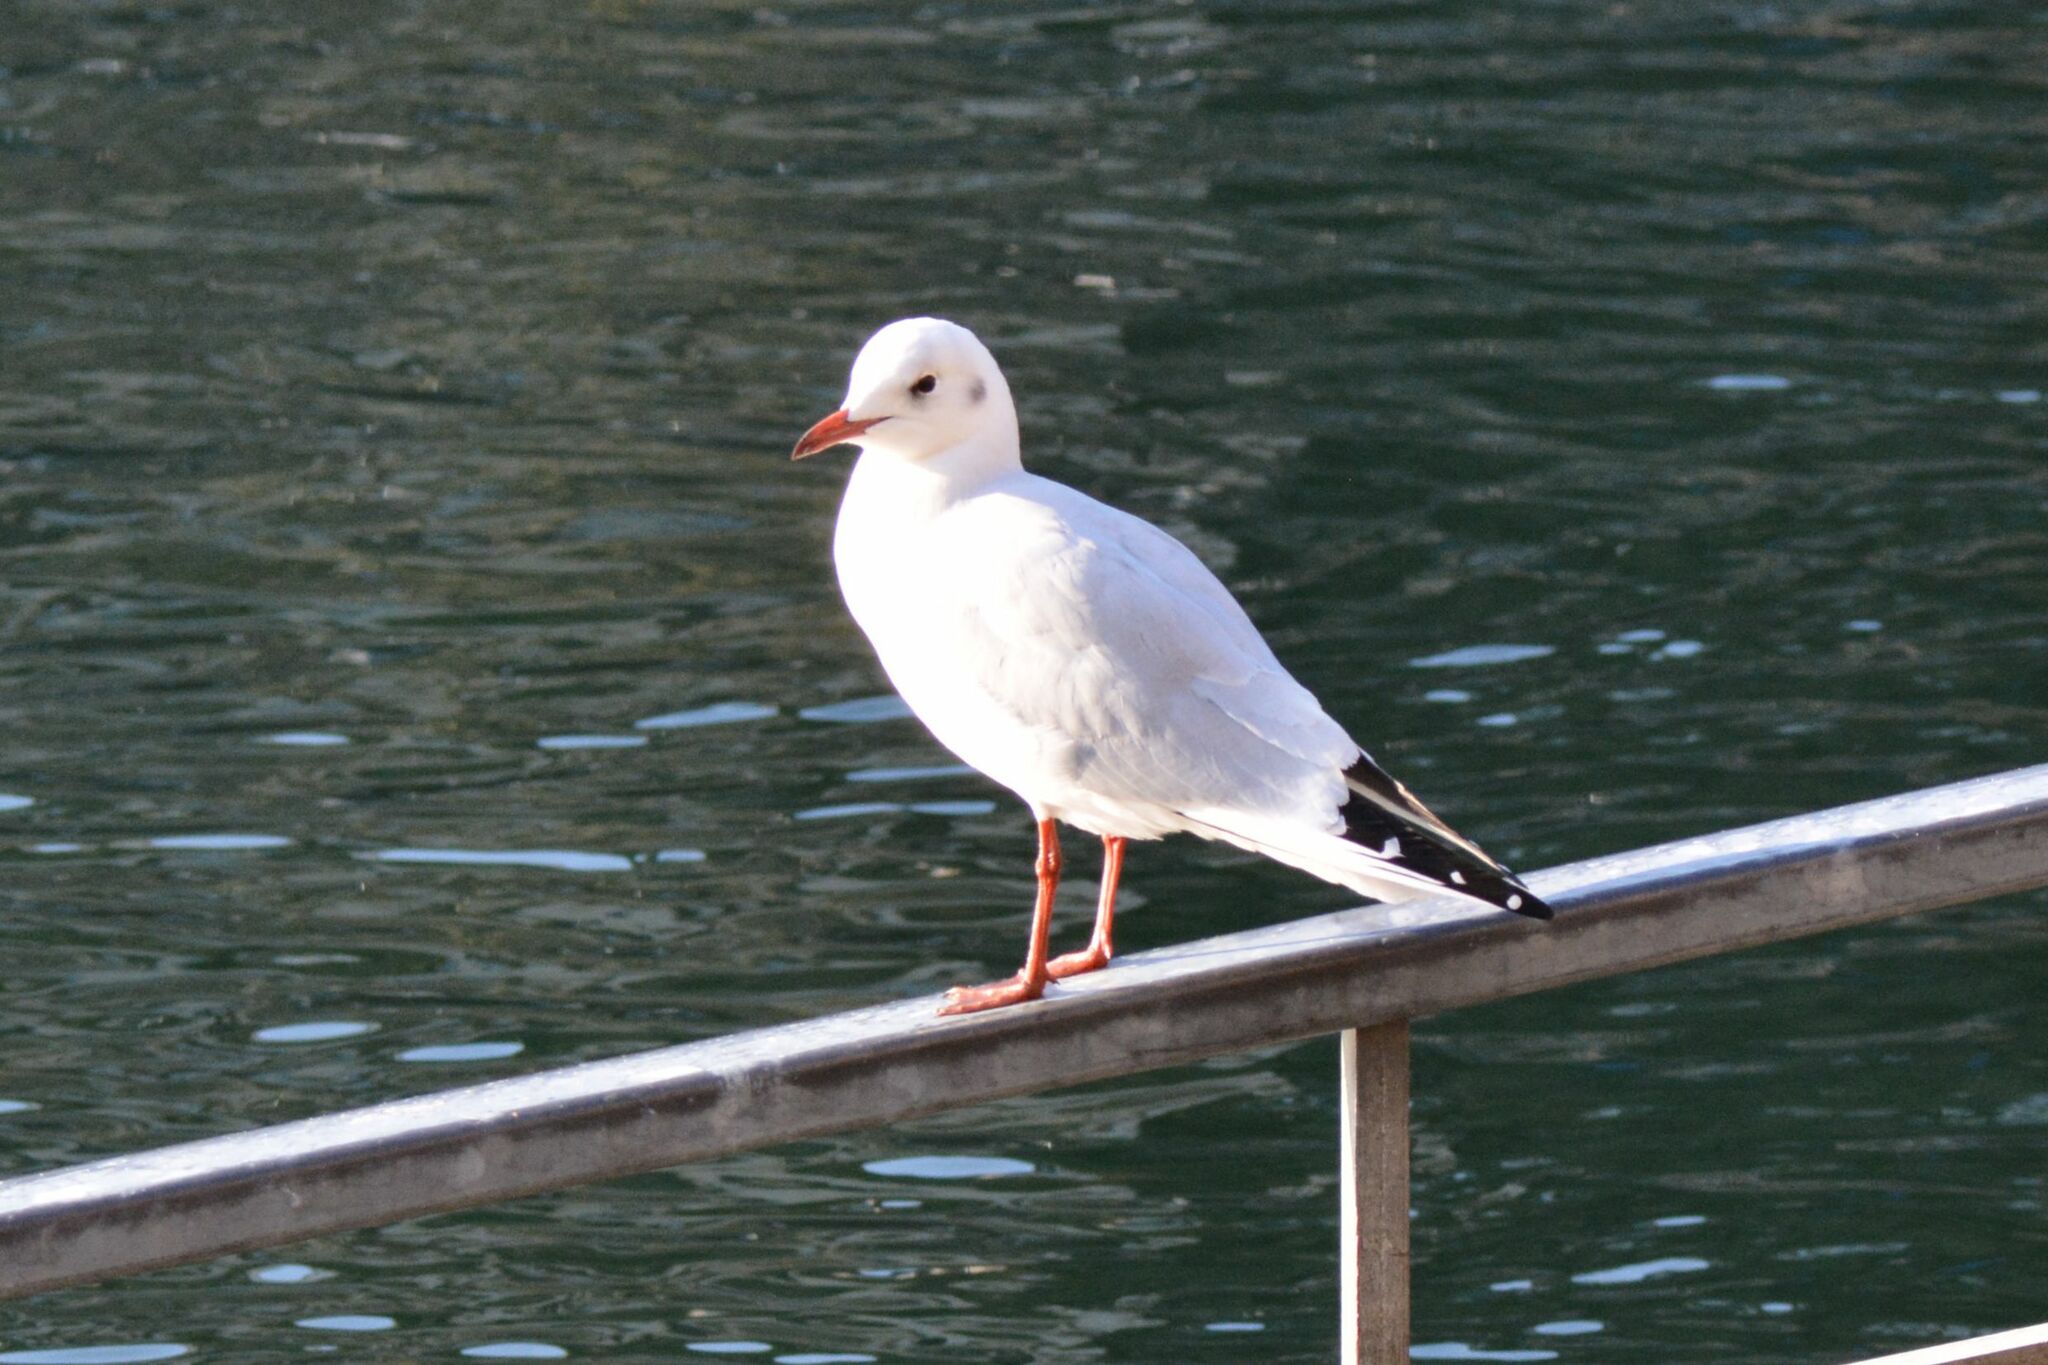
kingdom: Animalia
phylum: Chordata
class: Aves
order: Charadriiformes
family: Laridae
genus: Chroicocephalus
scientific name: Chroicocephalus ridibundus
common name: Black-headed gull
